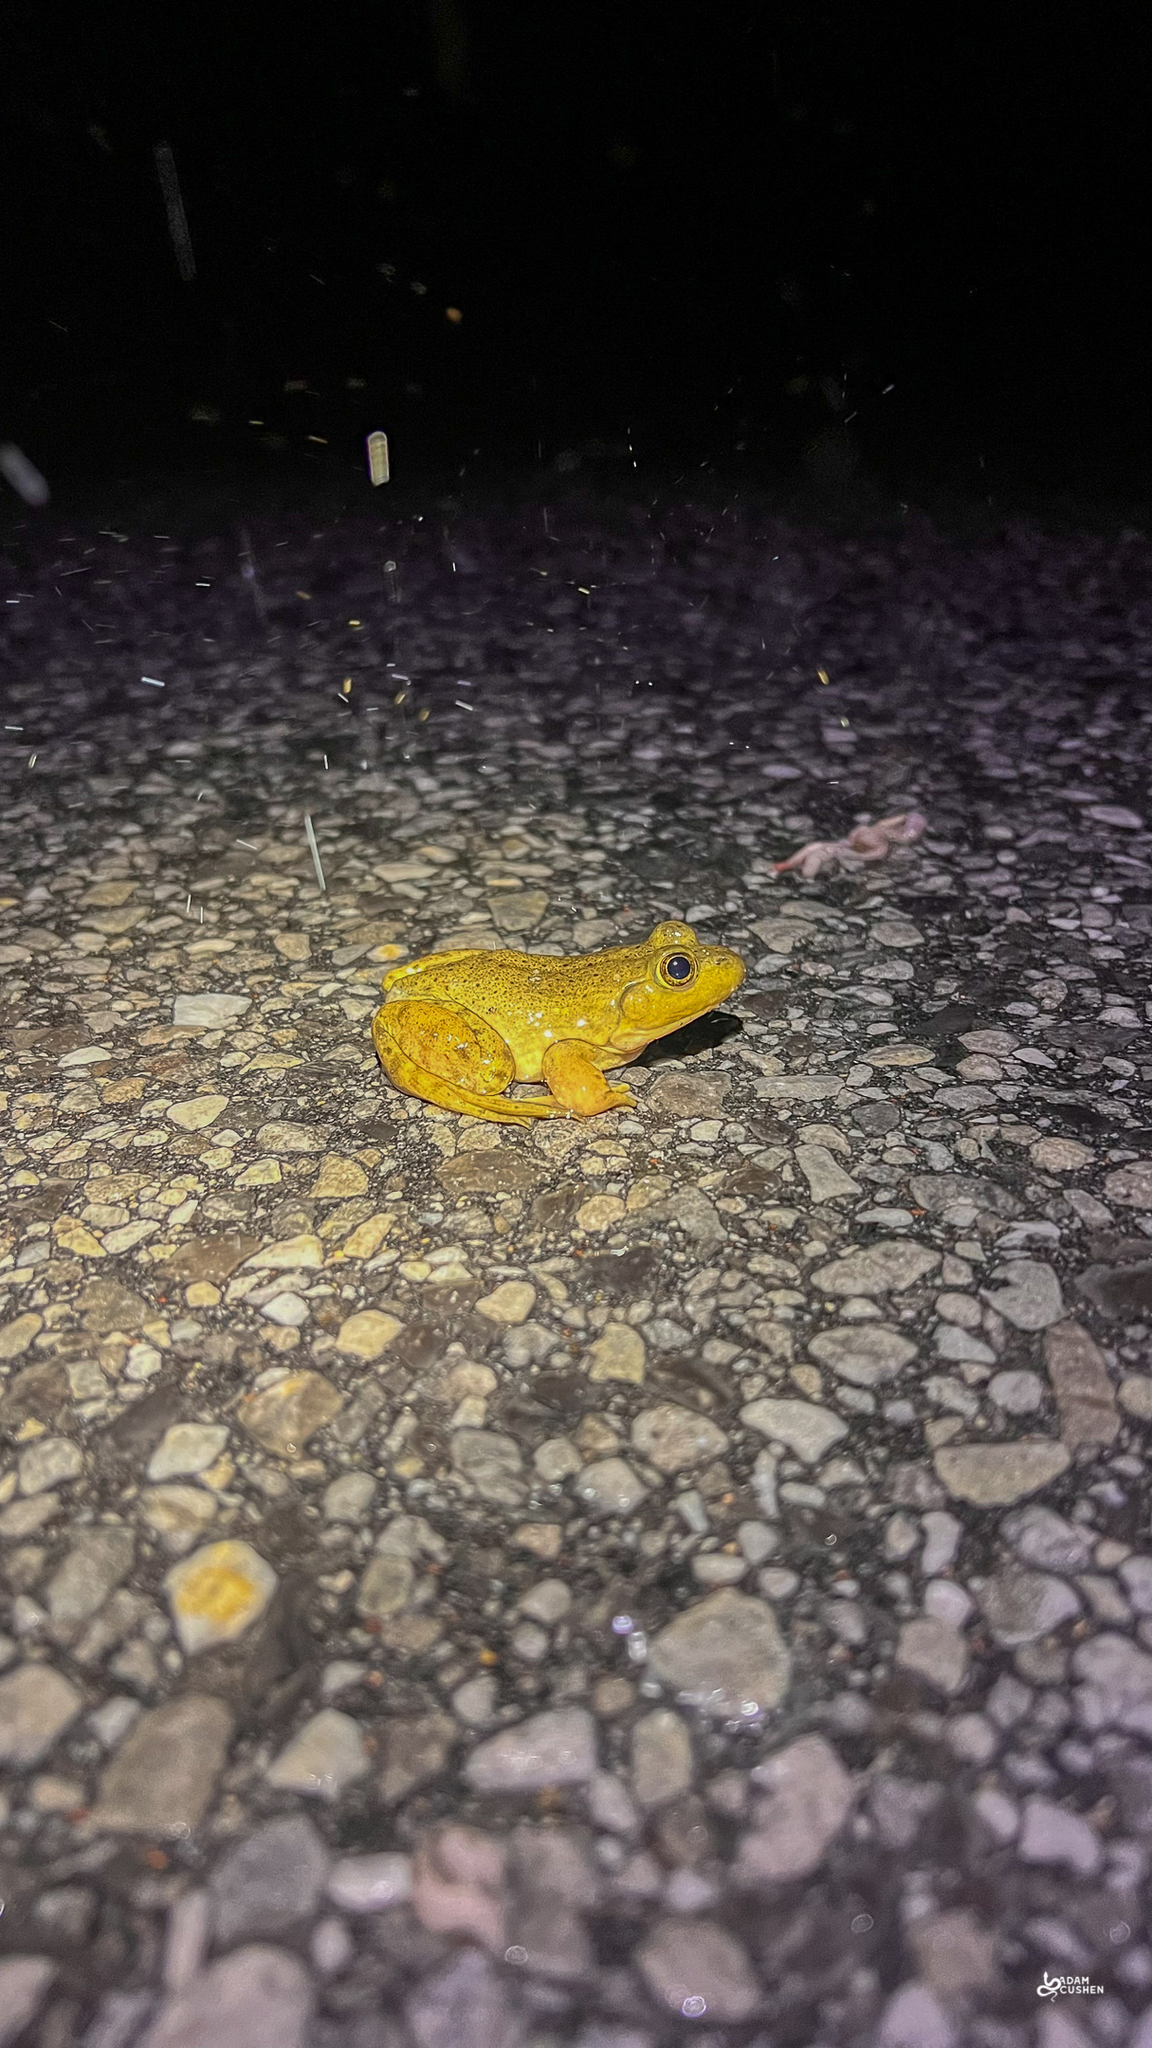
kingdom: Animalia
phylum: Chordata
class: Amphibia
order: Anura
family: Ranidae
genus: Lithobates
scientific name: Lithobates catesbeianus
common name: American bullfrog
